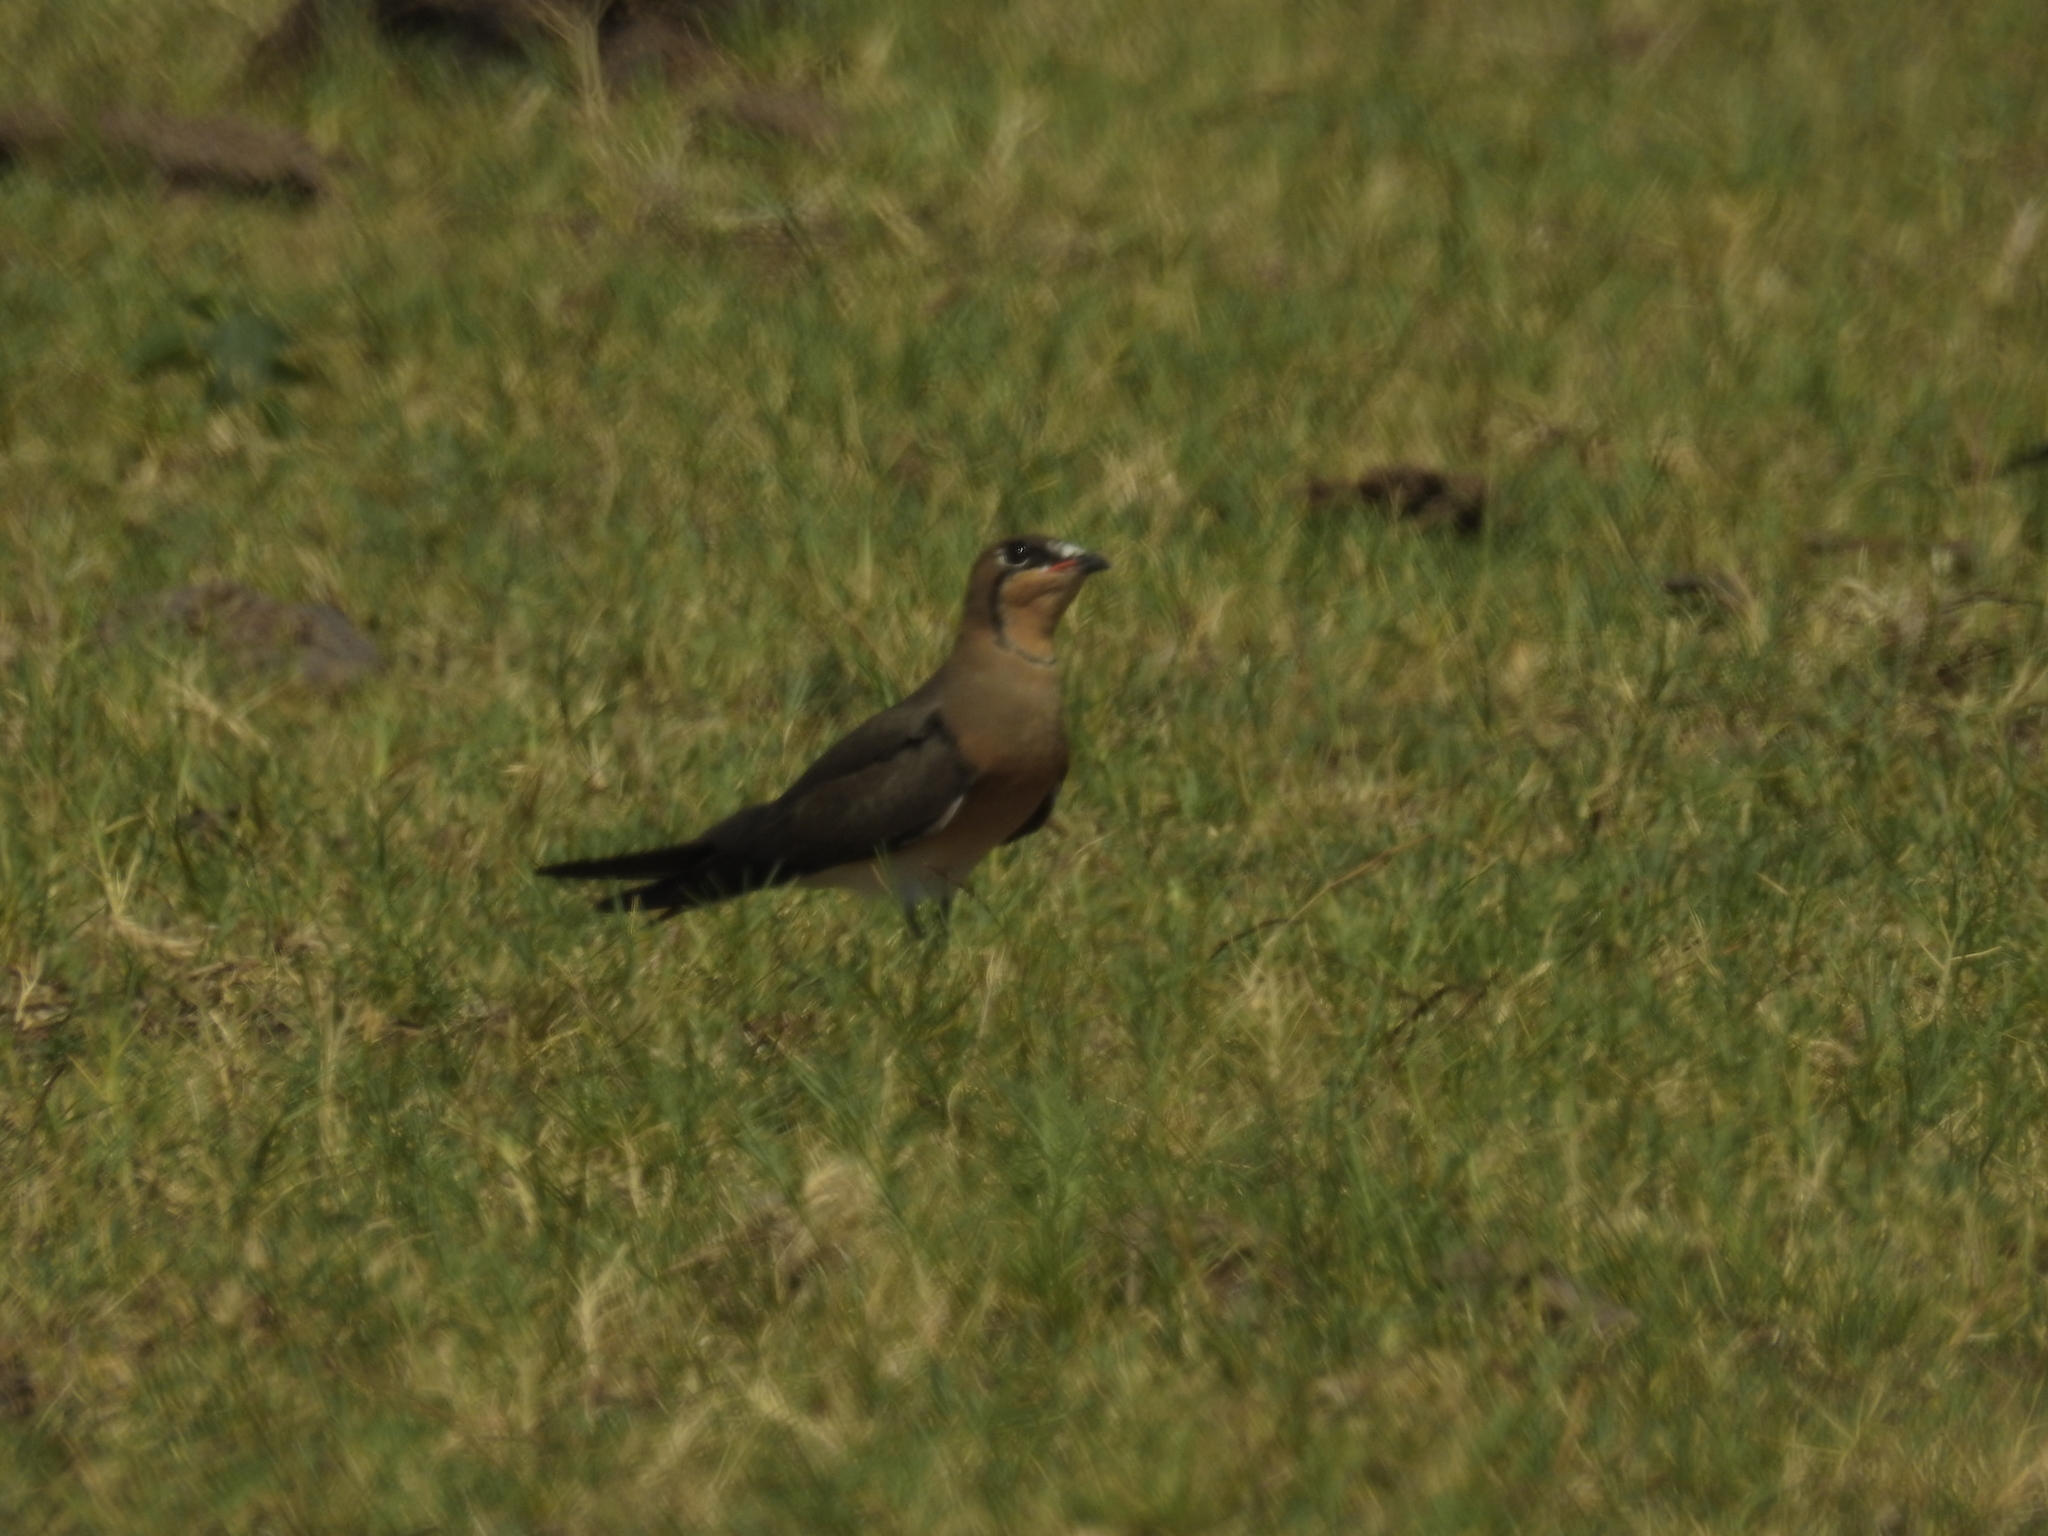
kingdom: Animalia
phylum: Chordata
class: Aves
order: Charadriiformes
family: Glareolidae
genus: Glareola
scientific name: Glareola maldivarum
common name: Oriental pratincole
